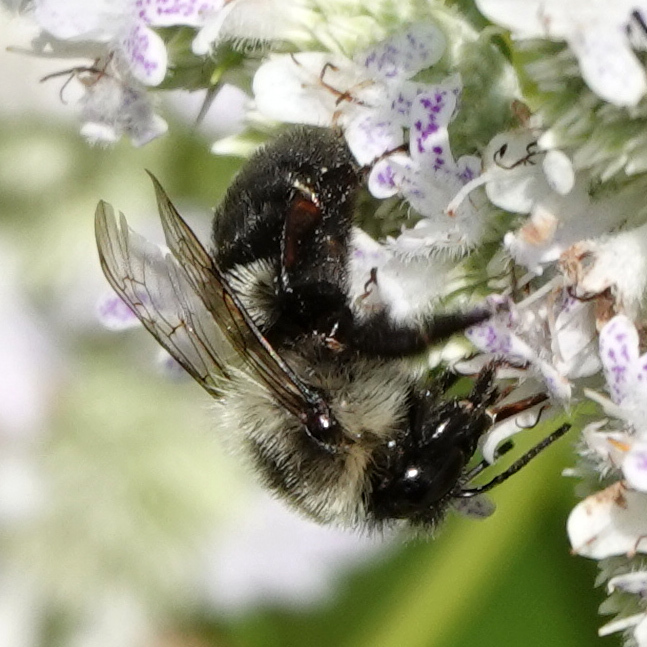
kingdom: Animalia
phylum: Arthropoda
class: Insecta
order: Hymenoptera
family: Apidae
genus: Bombus
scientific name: Bombus impatiens
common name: Common eastern bumble bee
